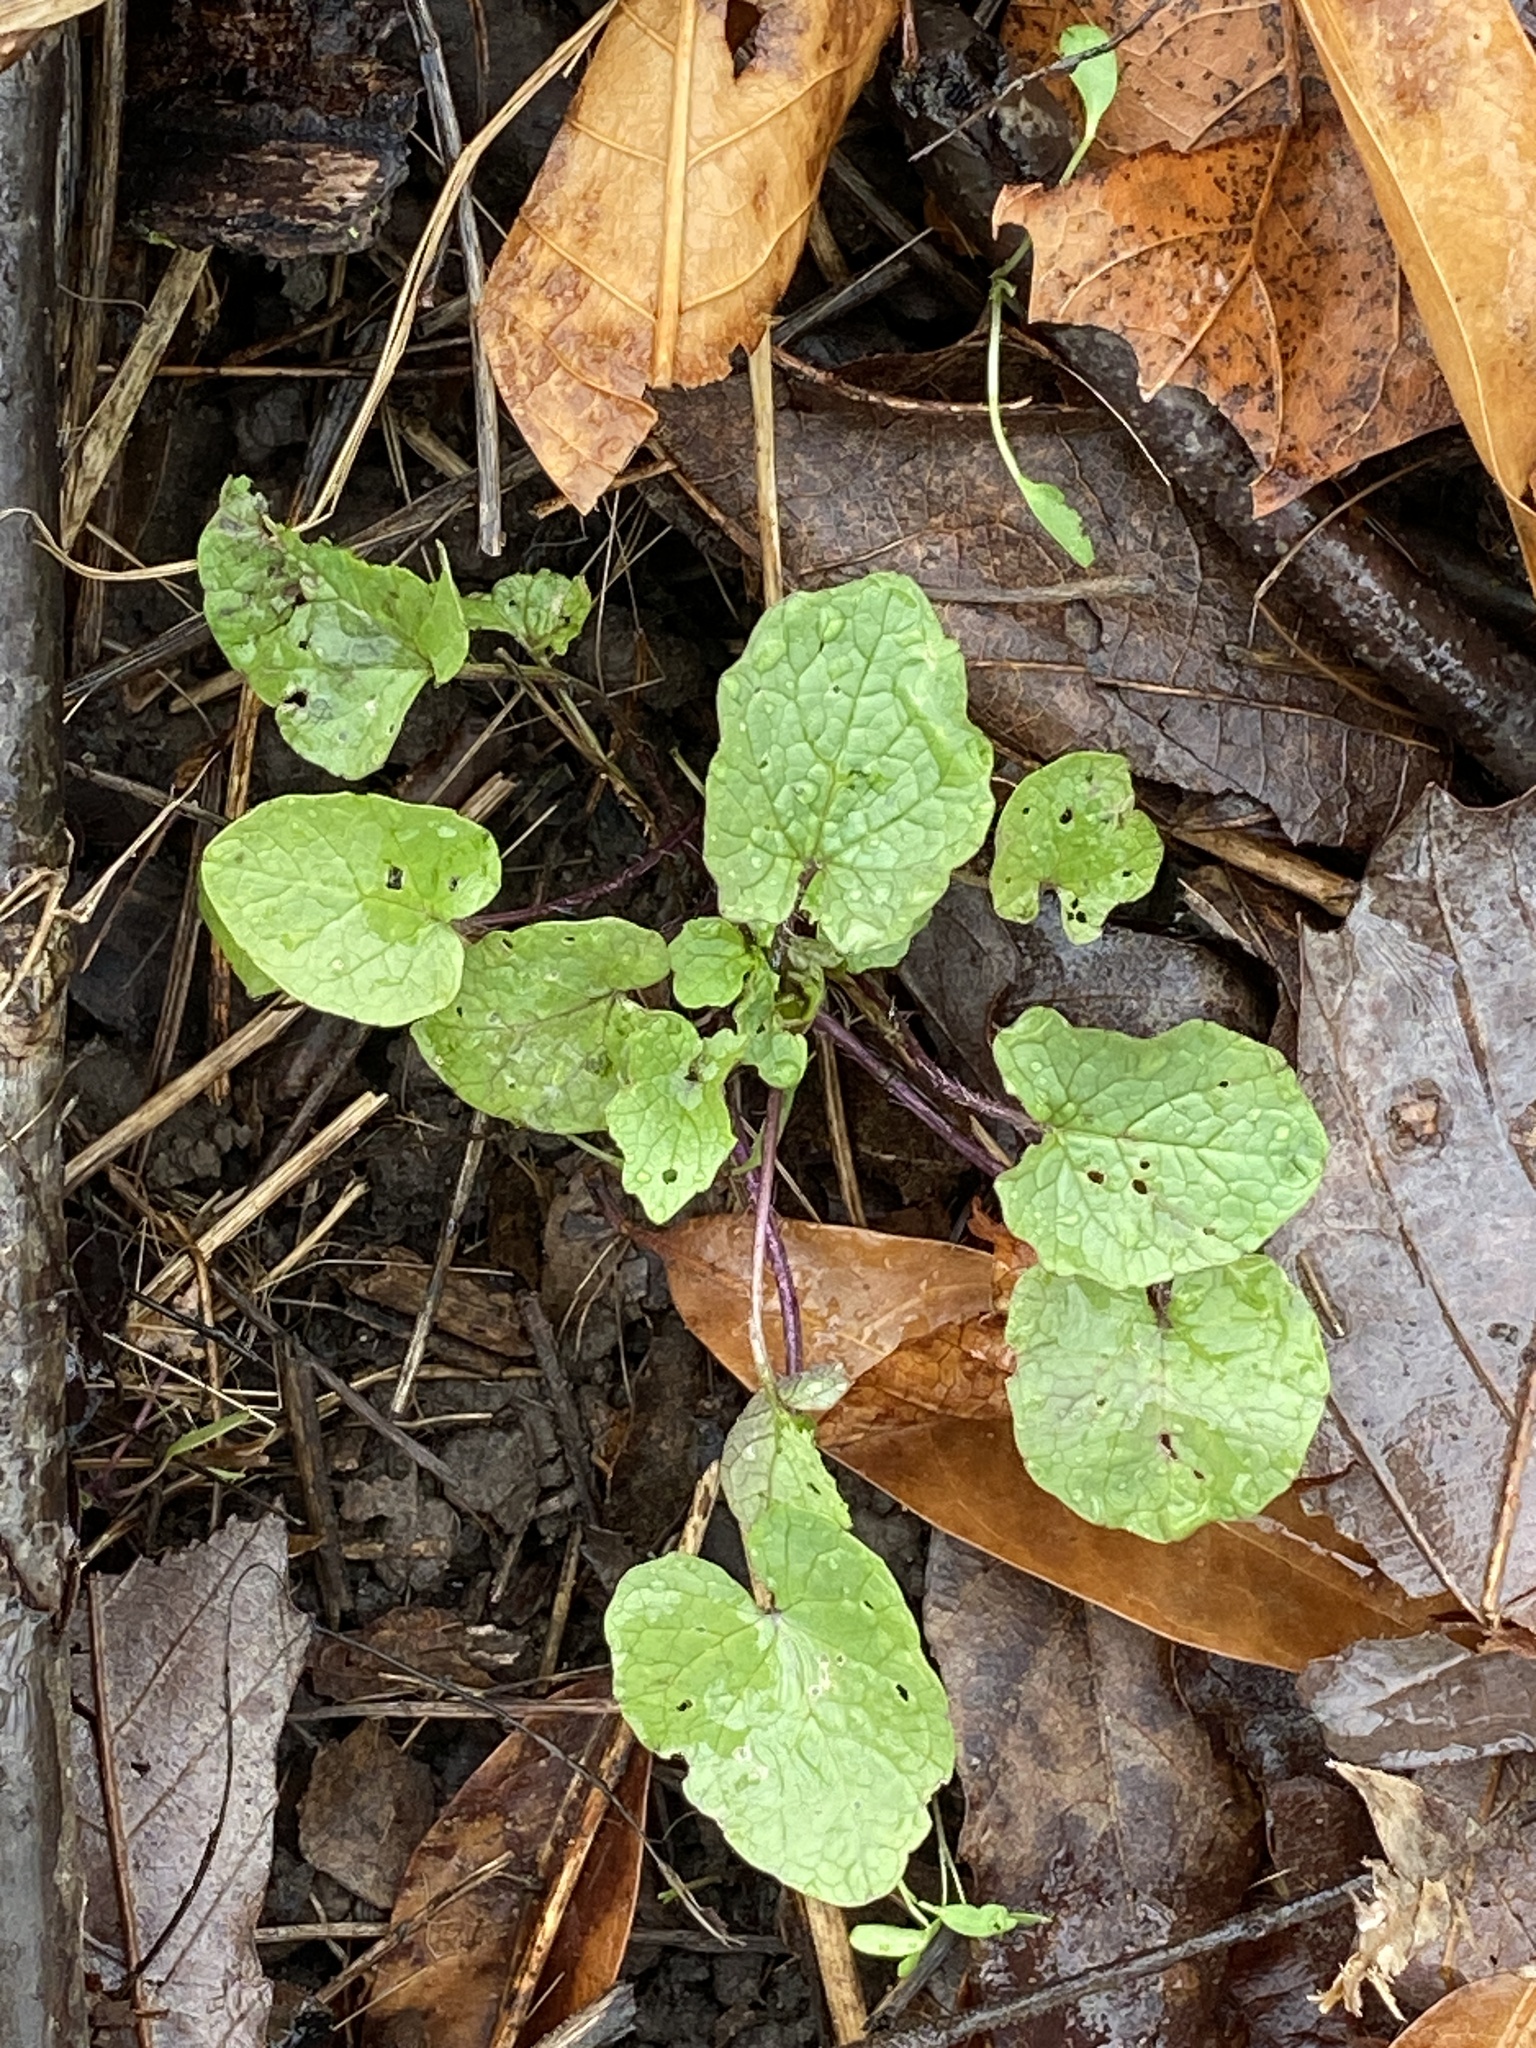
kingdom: Plantae
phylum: Tracheophyta
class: Magnoliopsida
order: Brassicales
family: Brassicaceae
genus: Alliaria
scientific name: Alliaria petiolata
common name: Garlic mustard
